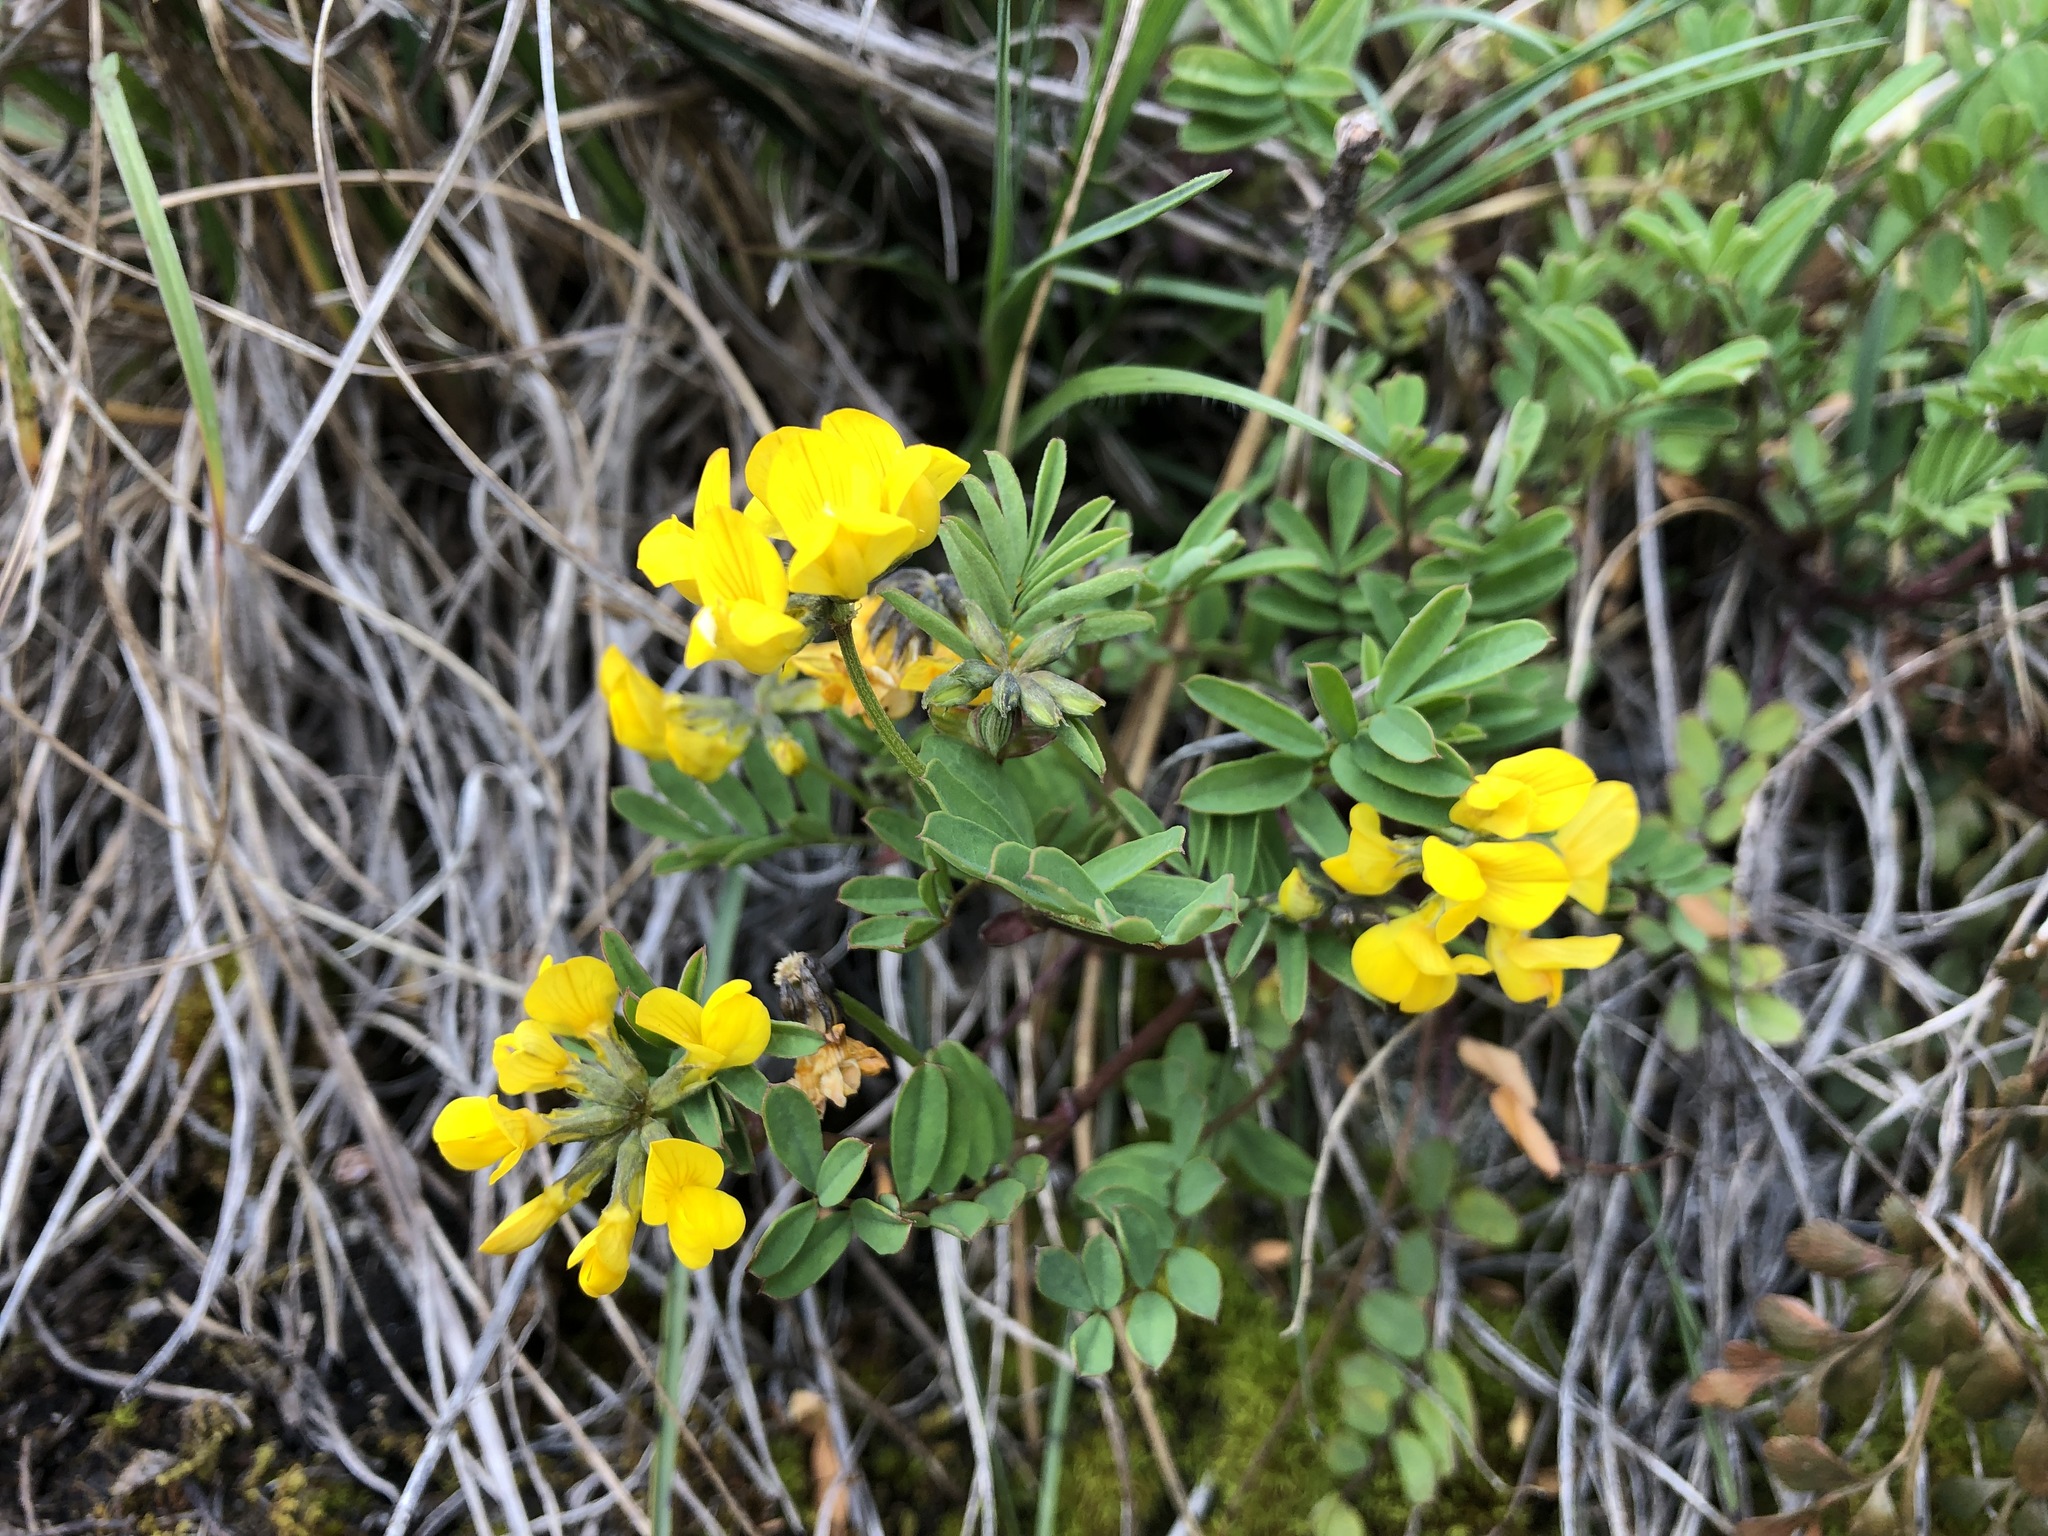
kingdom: Plantae
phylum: Tracheophyta
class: Magnoliopsida
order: Fabales
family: Fabaceae
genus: Hippocrepis
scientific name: Hippocrepis comosa
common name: Horseshoe vetch
